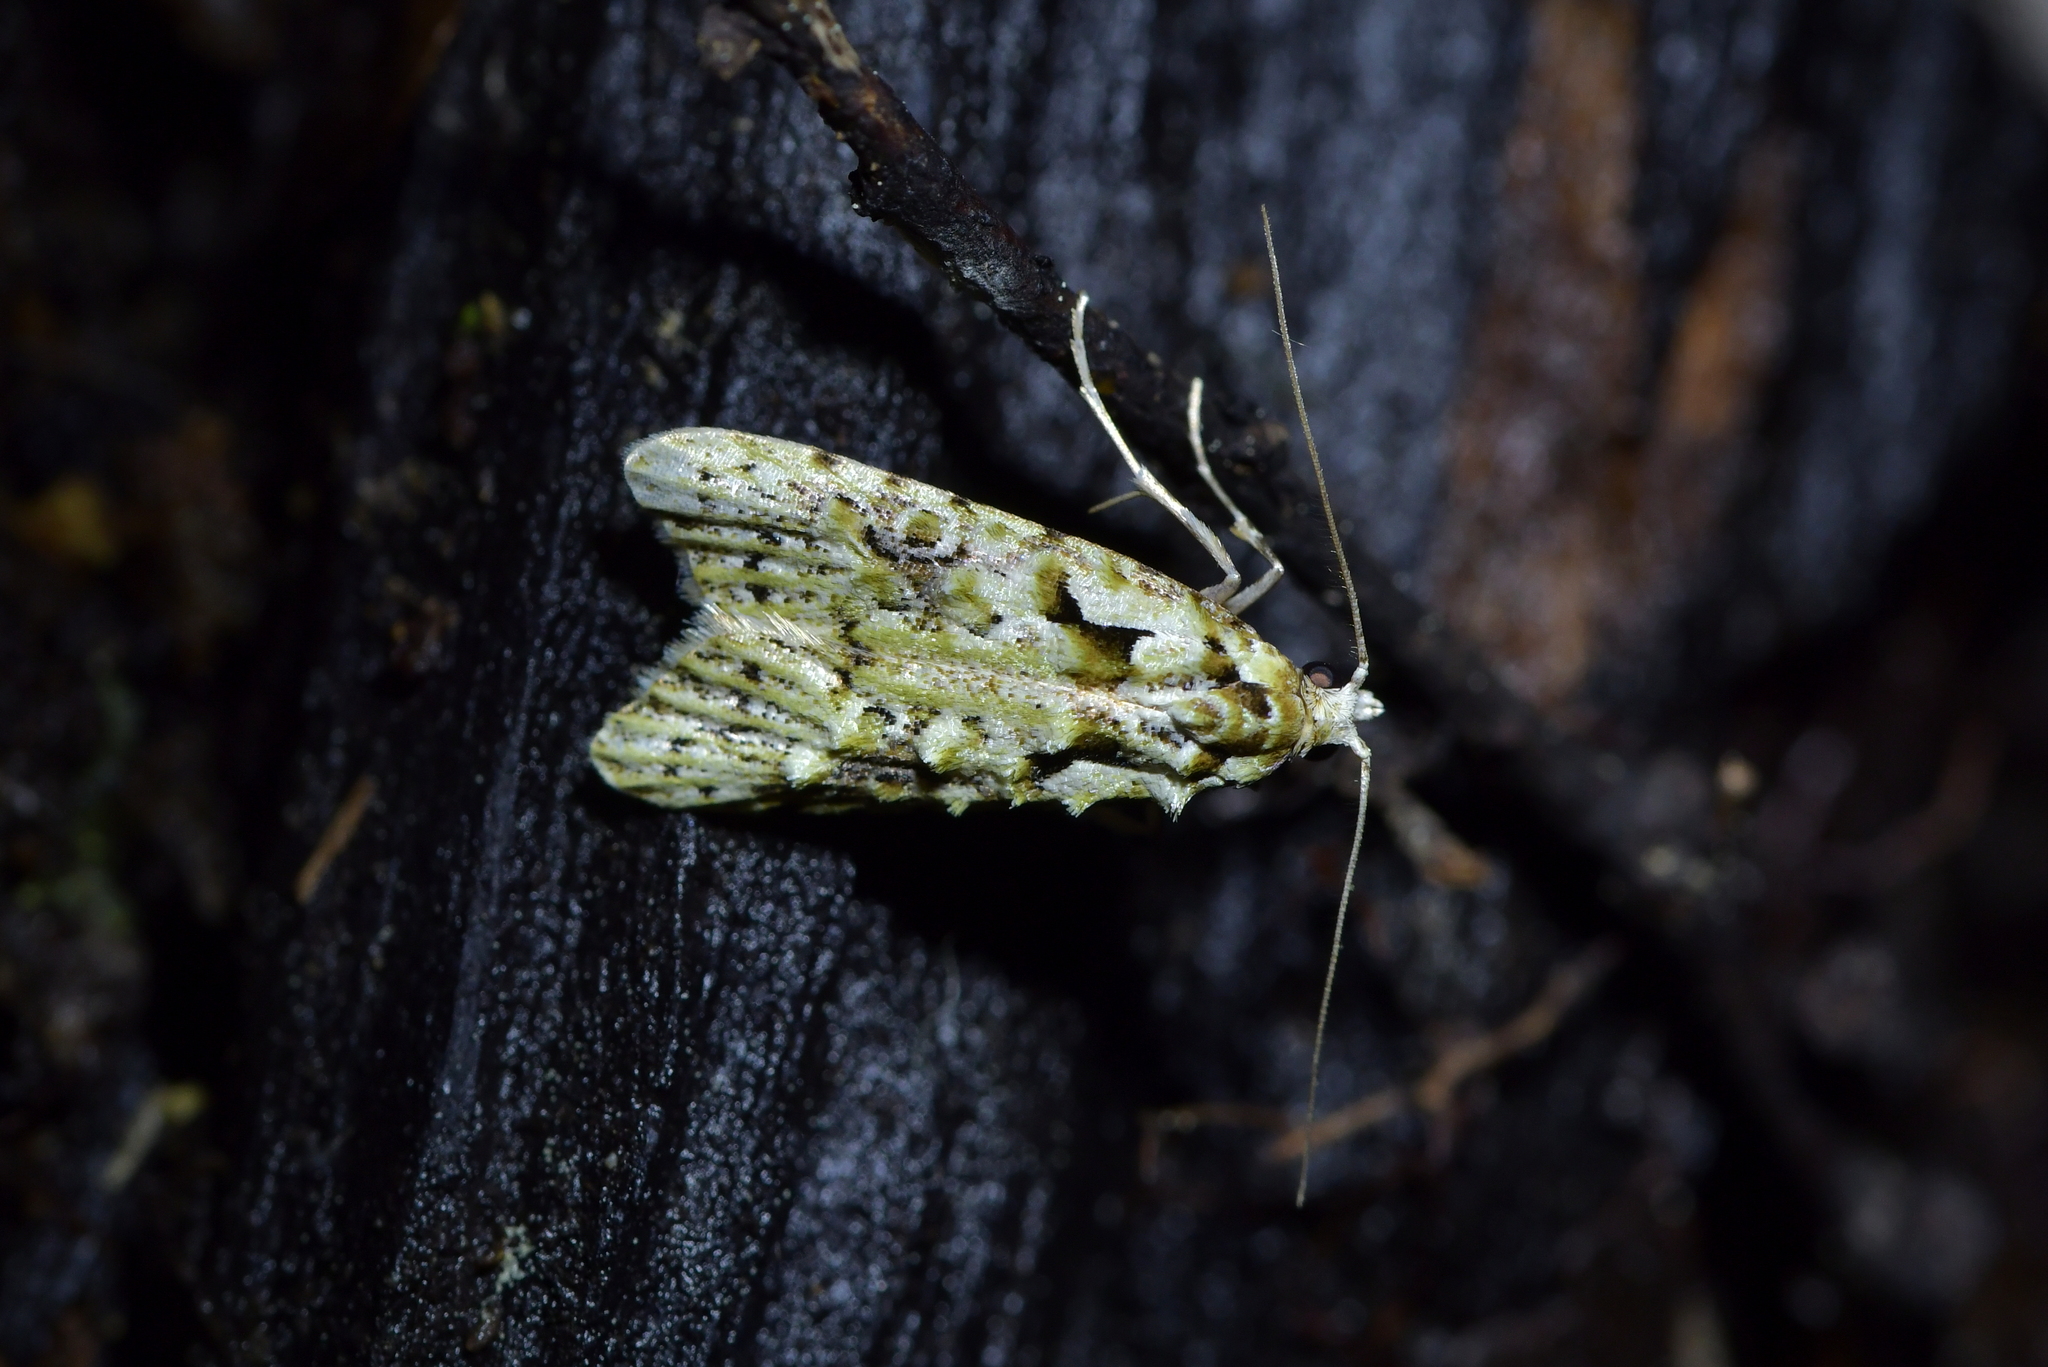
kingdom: Animalia
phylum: Arthropoda
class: Insecta
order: Lepidoptera
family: Carposinidae
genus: Carposina
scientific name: Carposina Heterocrossa eriphylla
